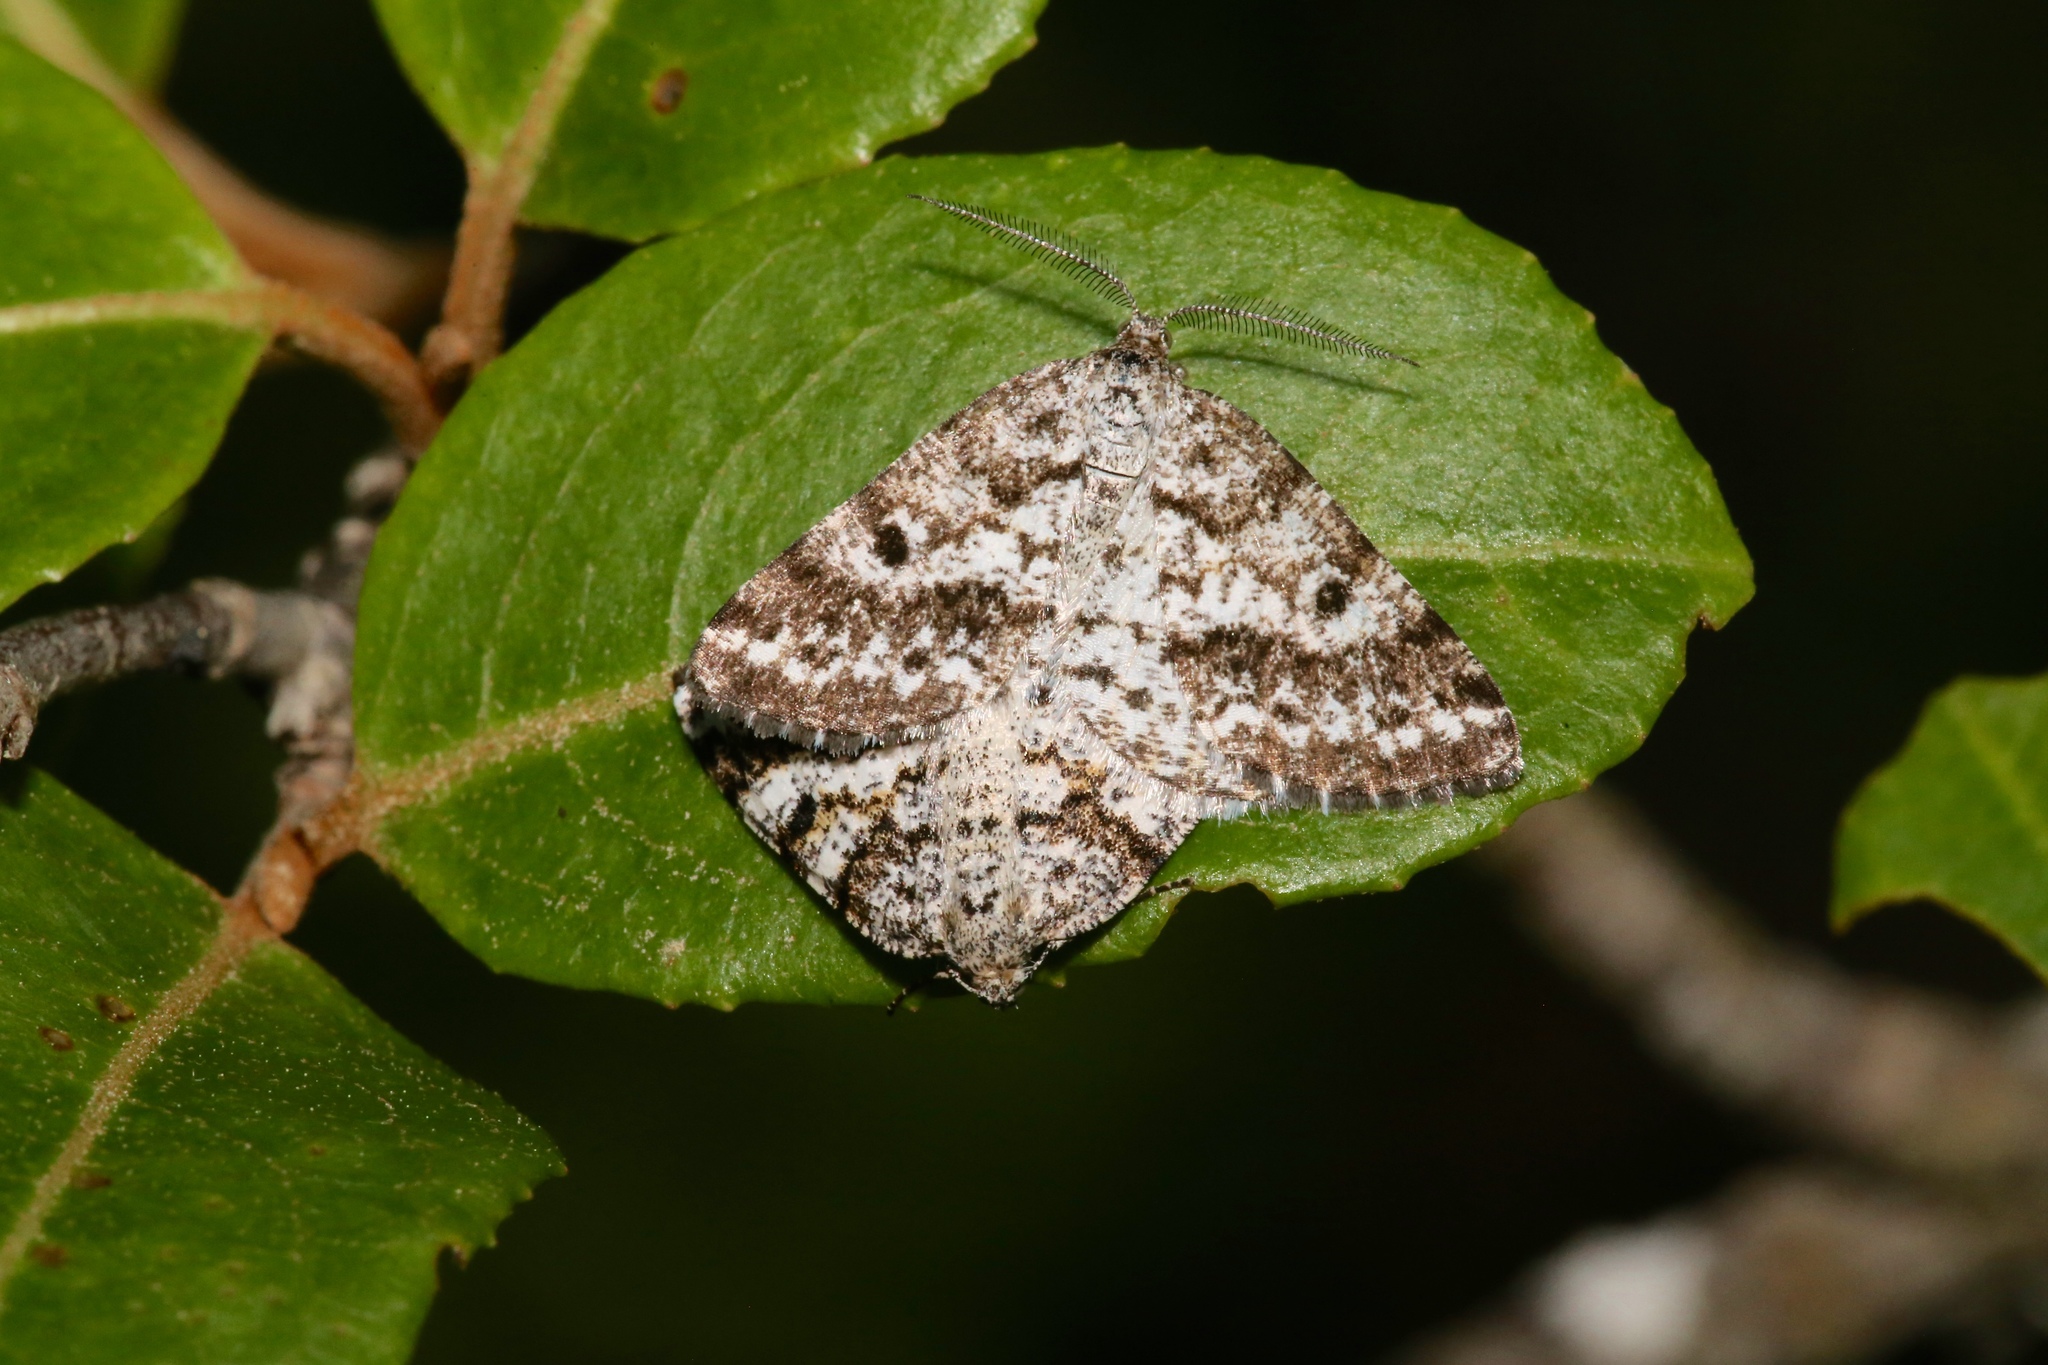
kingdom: Animalia
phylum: Arthropoda
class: Insecta
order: Lepidoptera
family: Geometridae
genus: Eufidonia
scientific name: Eufidonia discospilata
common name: Sharp-lined powder moth
